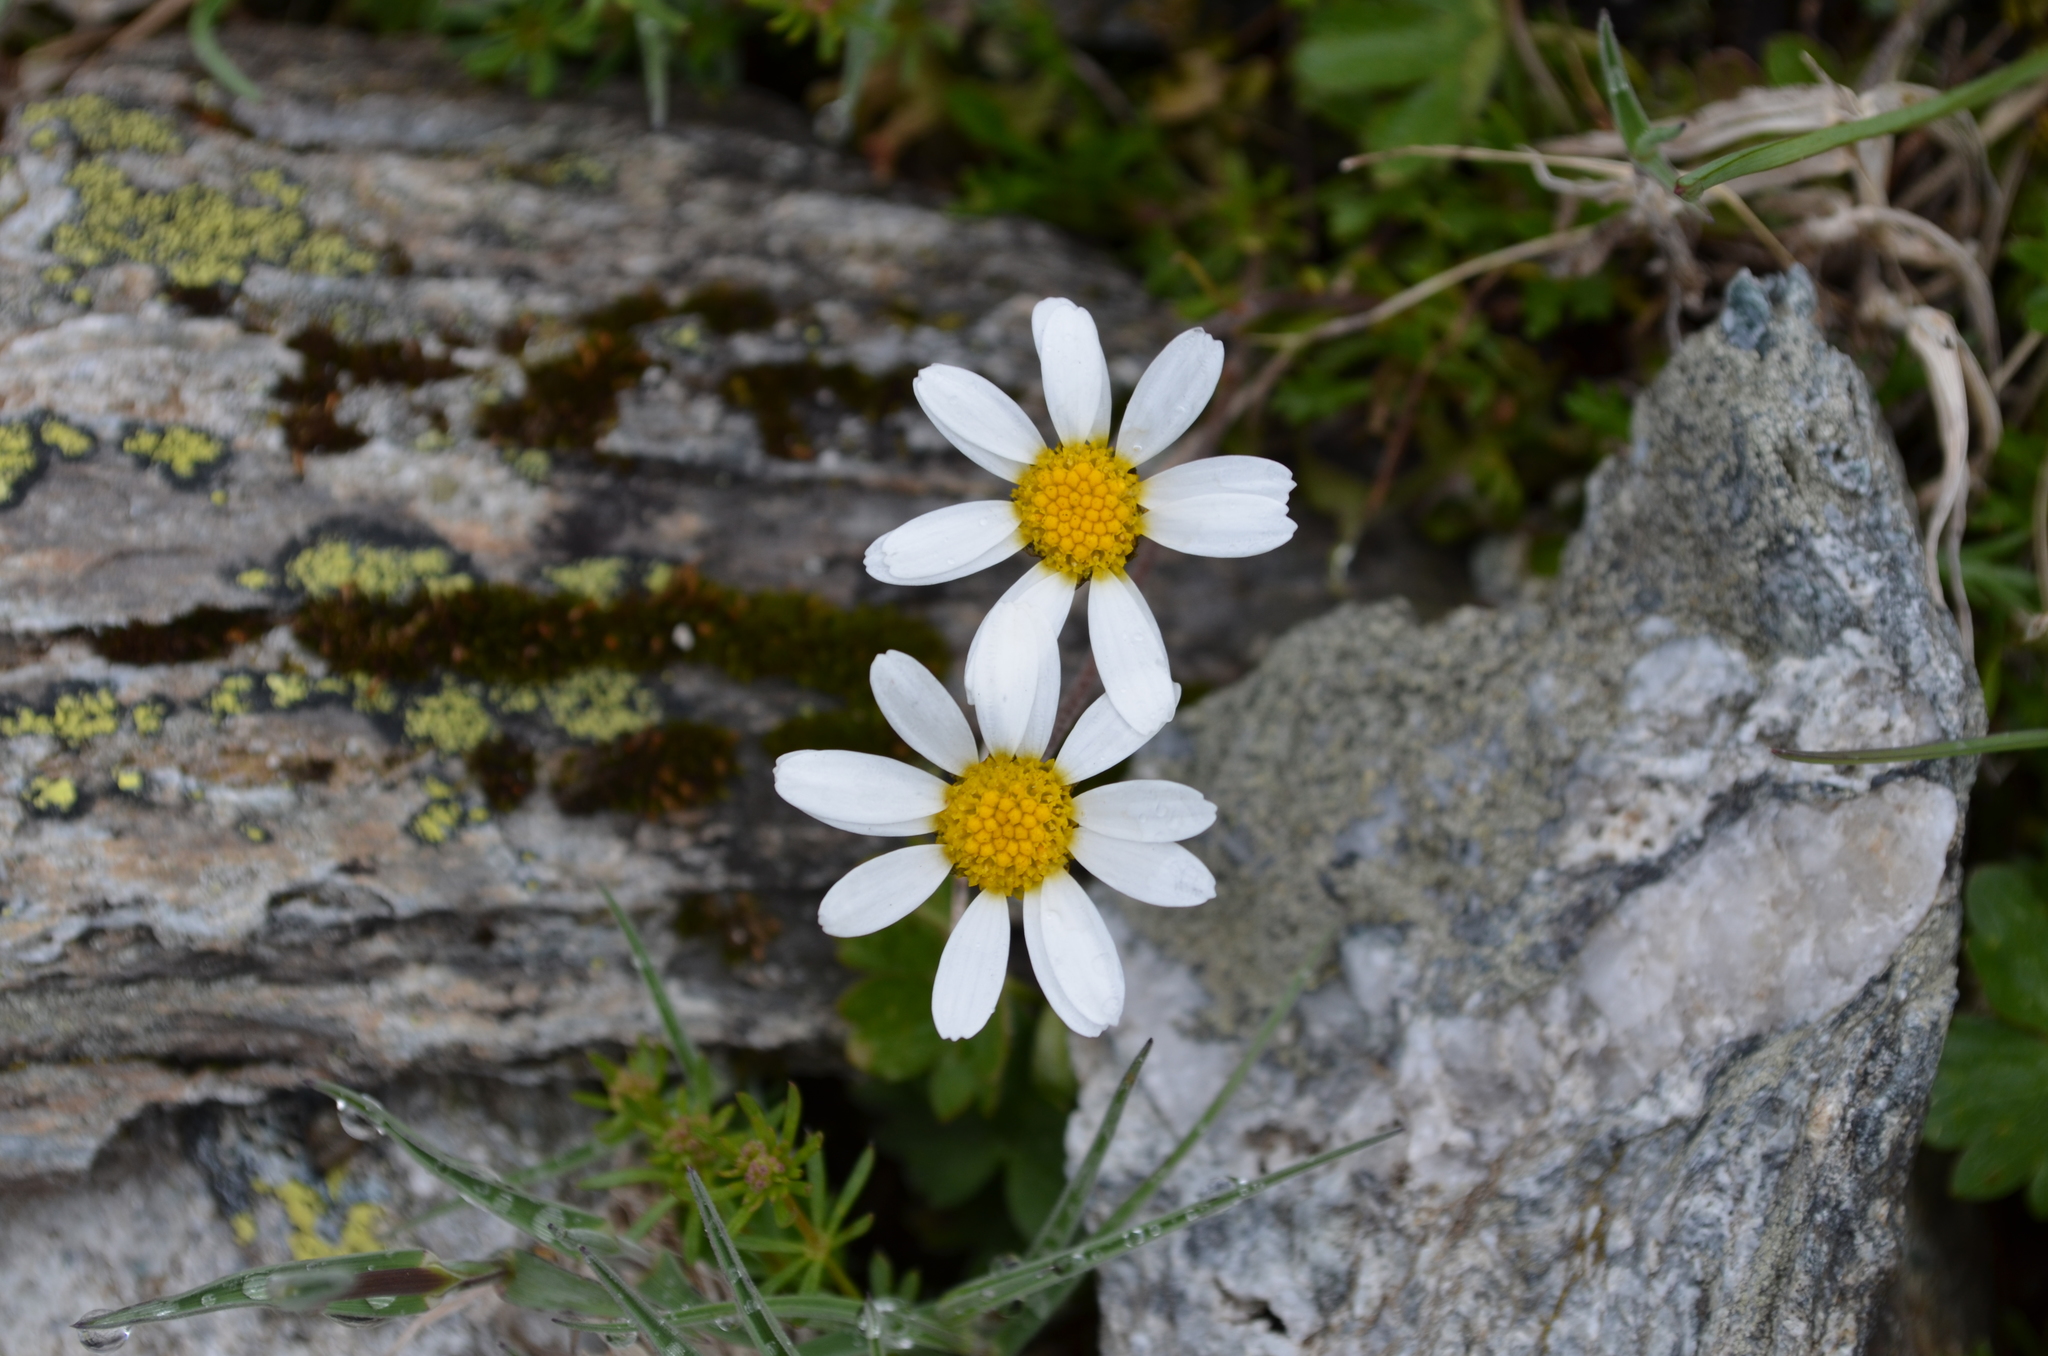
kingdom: Plantae
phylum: Tracheophyta
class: Magnoliopsida
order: Asterales
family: Asteraceae
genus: Leucanthemopsis
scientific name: Leucanthemopsis alpina
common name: Alpine moon daisy
